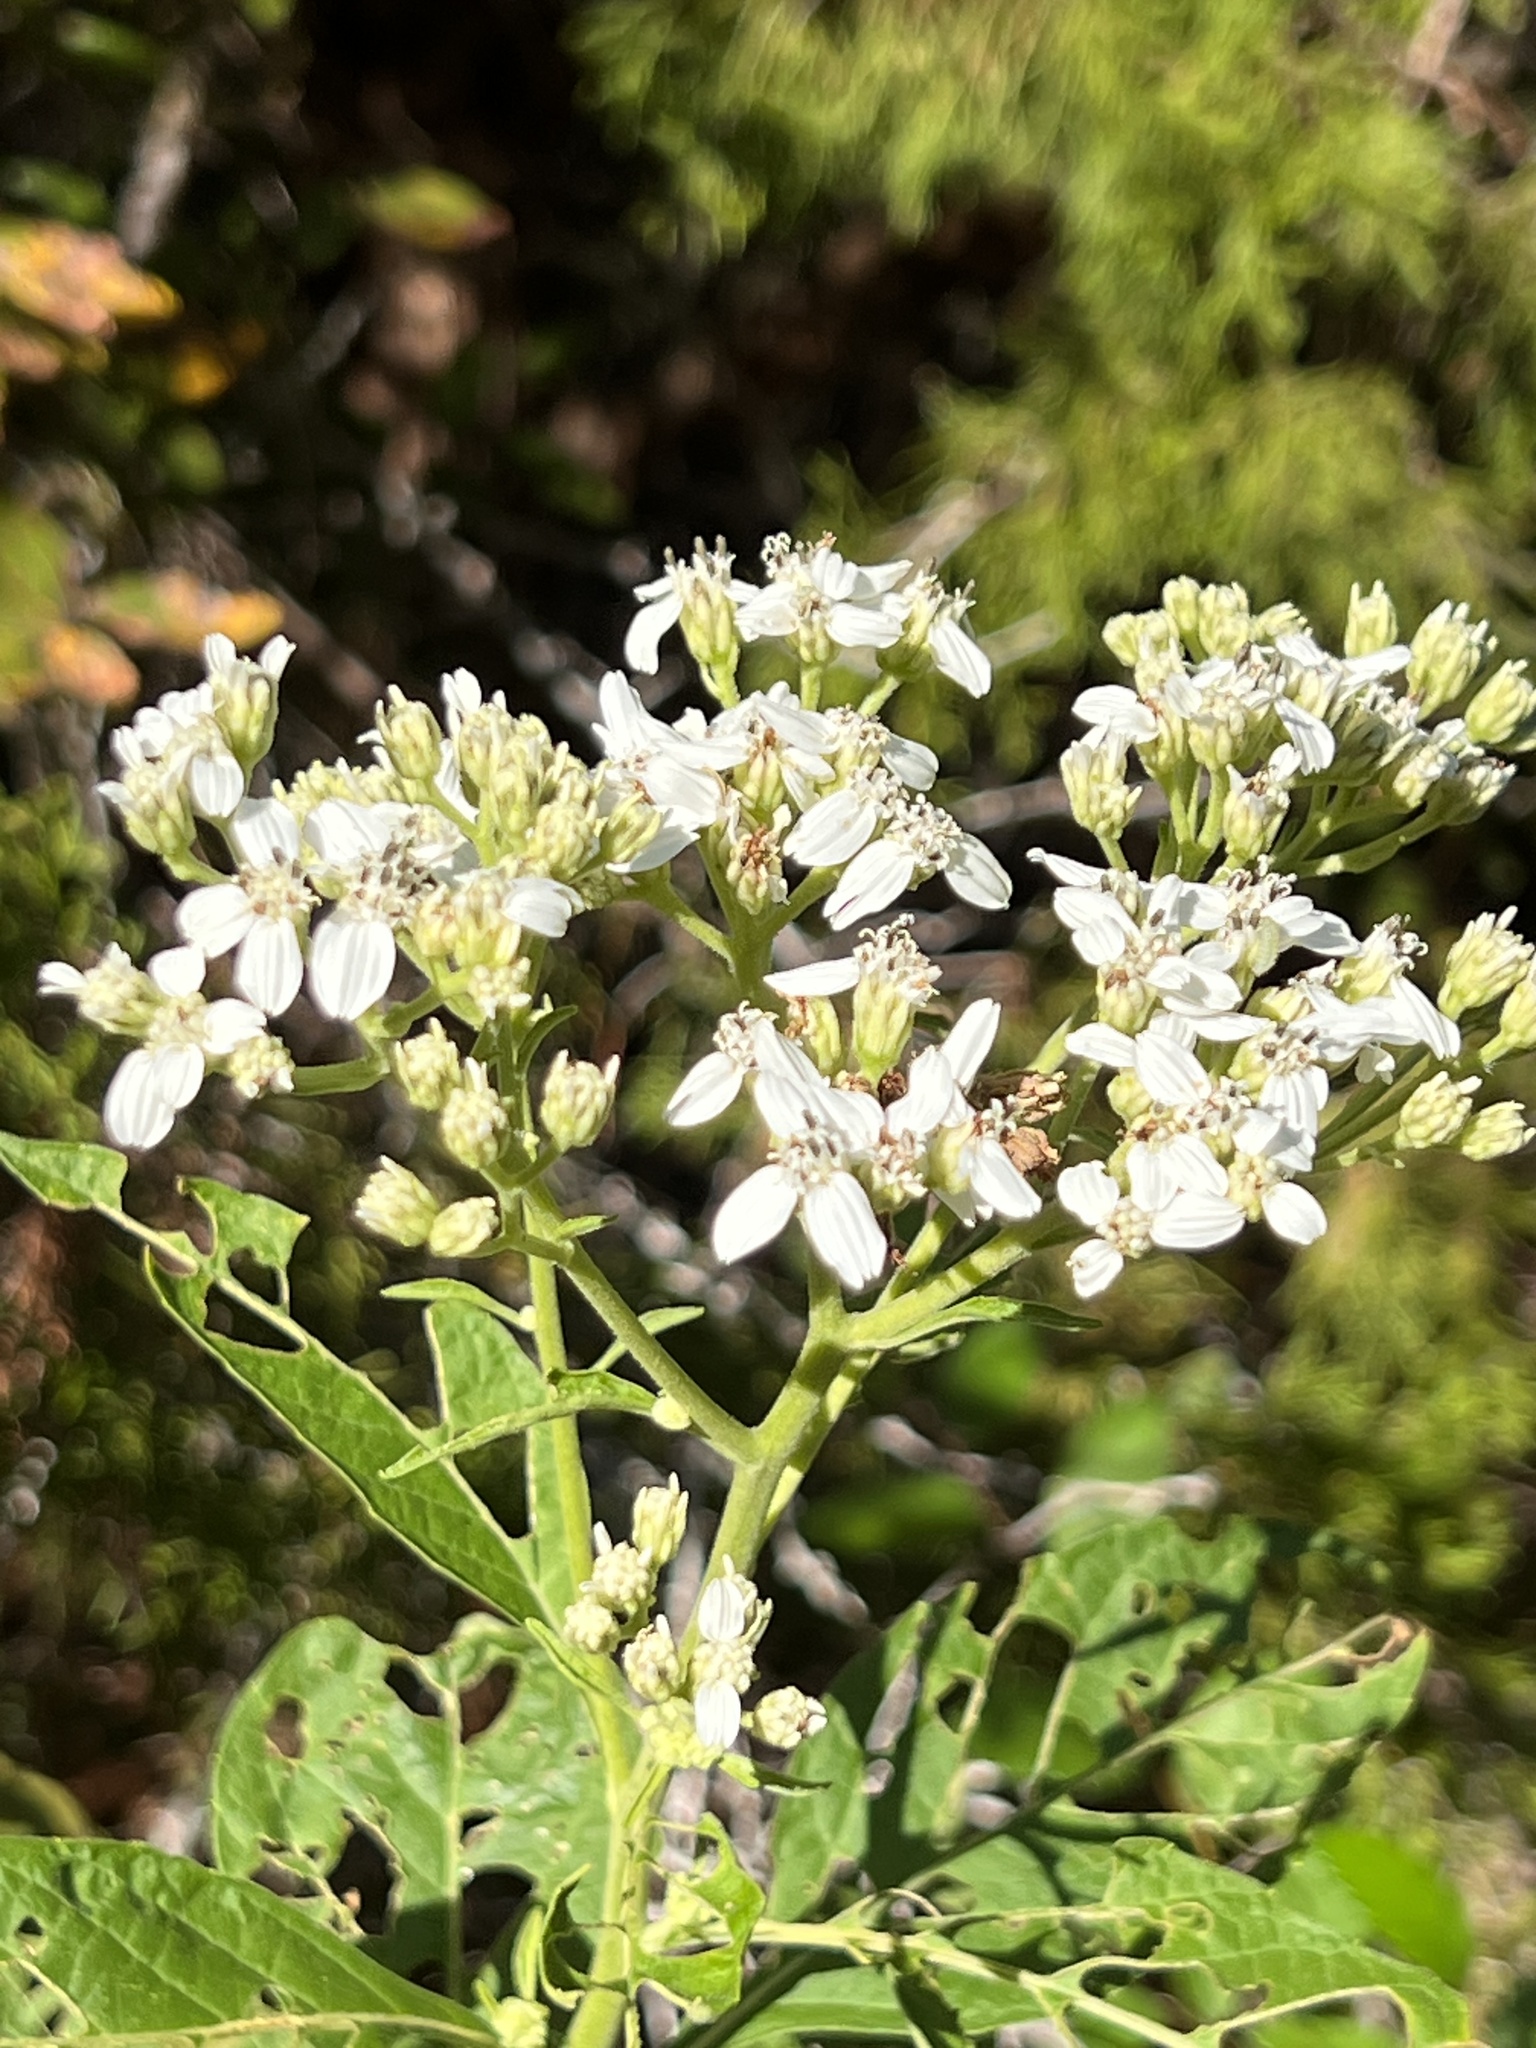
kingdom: Plantae
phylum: Tracheophyta
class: Magnoliopsida
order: Asterales
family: Asteraceae
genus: Verbesina
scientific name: Verbesina virginica
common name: Frostweed
